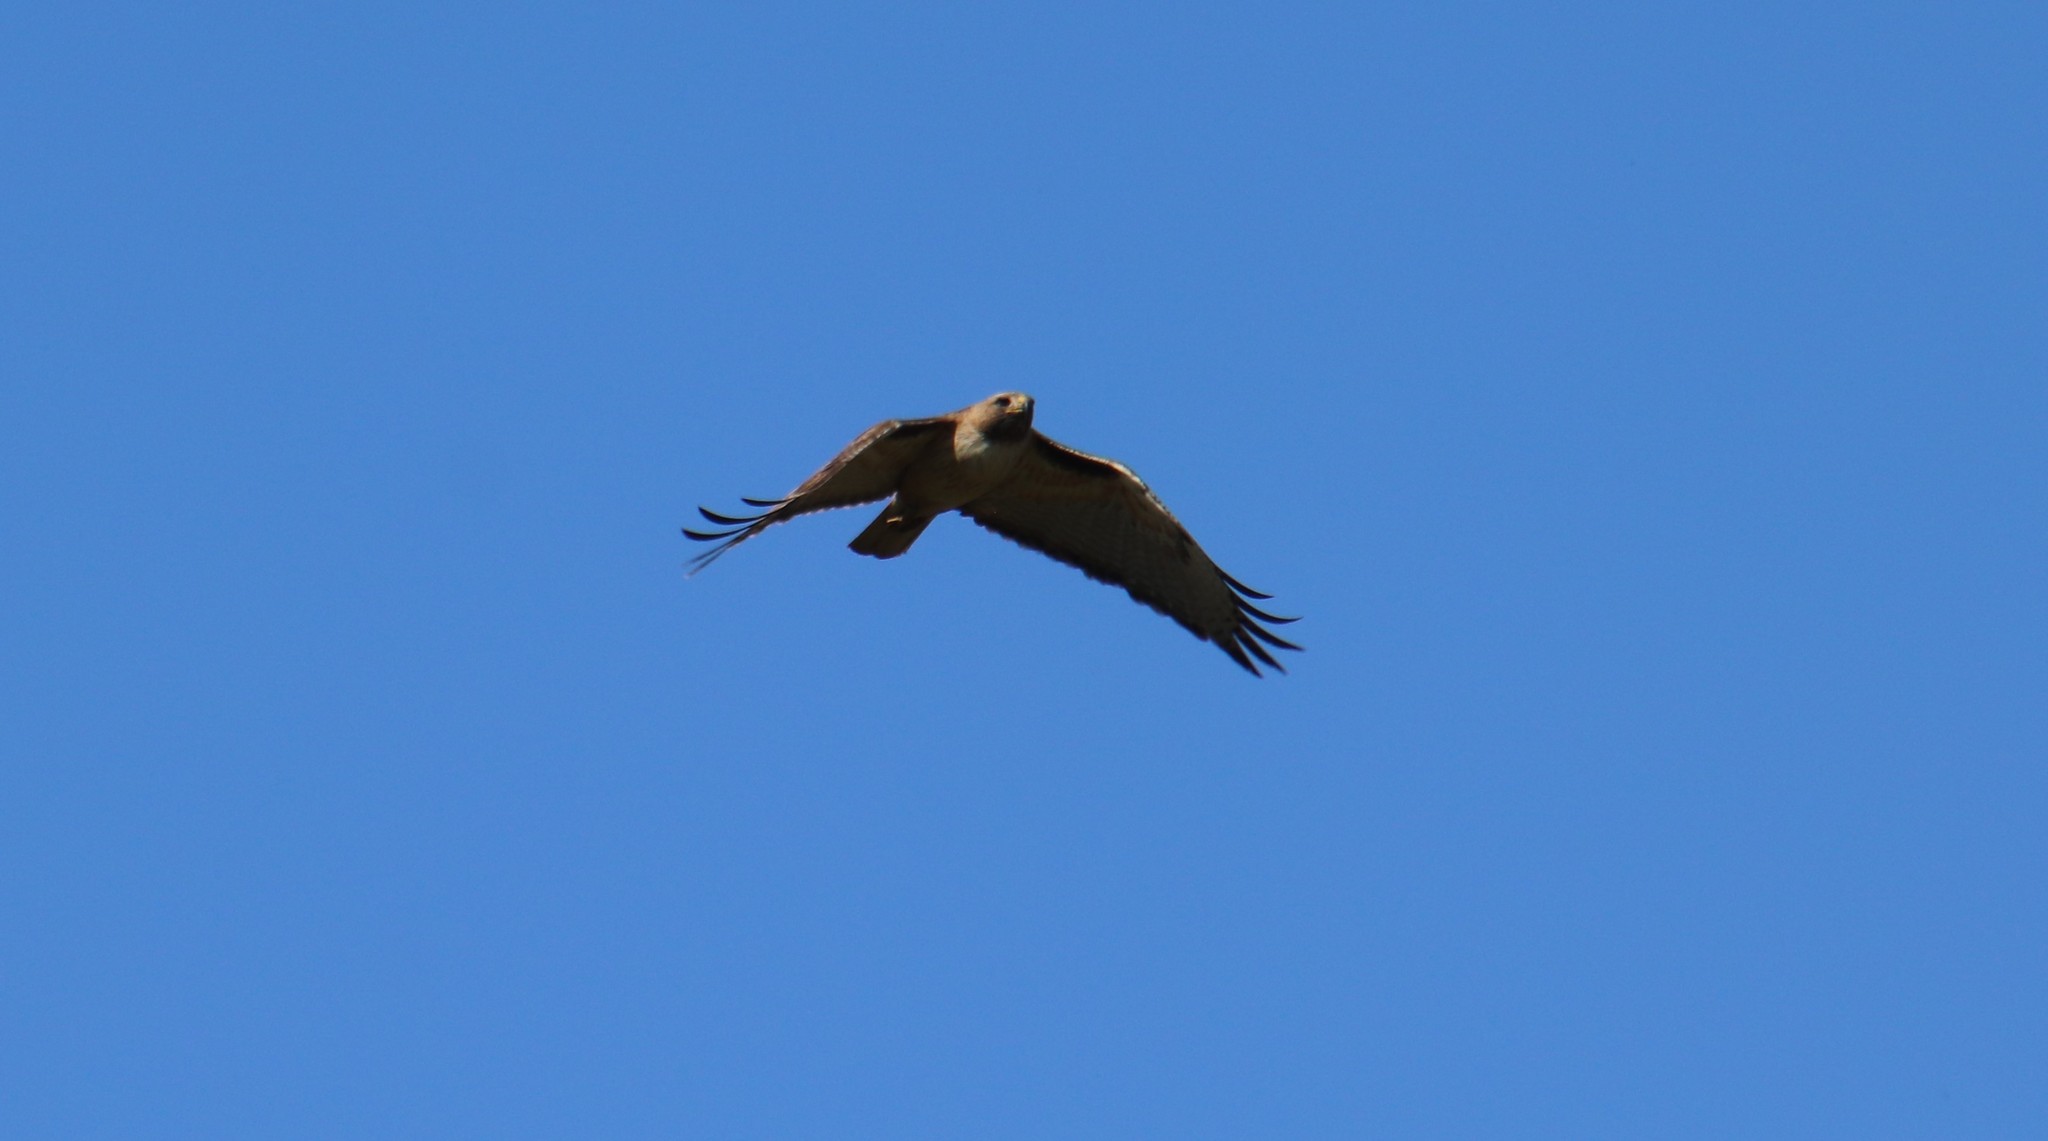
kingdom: Animalia
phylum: Chordata
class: Aves
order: Accipitriformes
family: Accipitridae
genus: Buteo
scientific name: Buteo jamaicensis
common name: Red-tailed hawk
